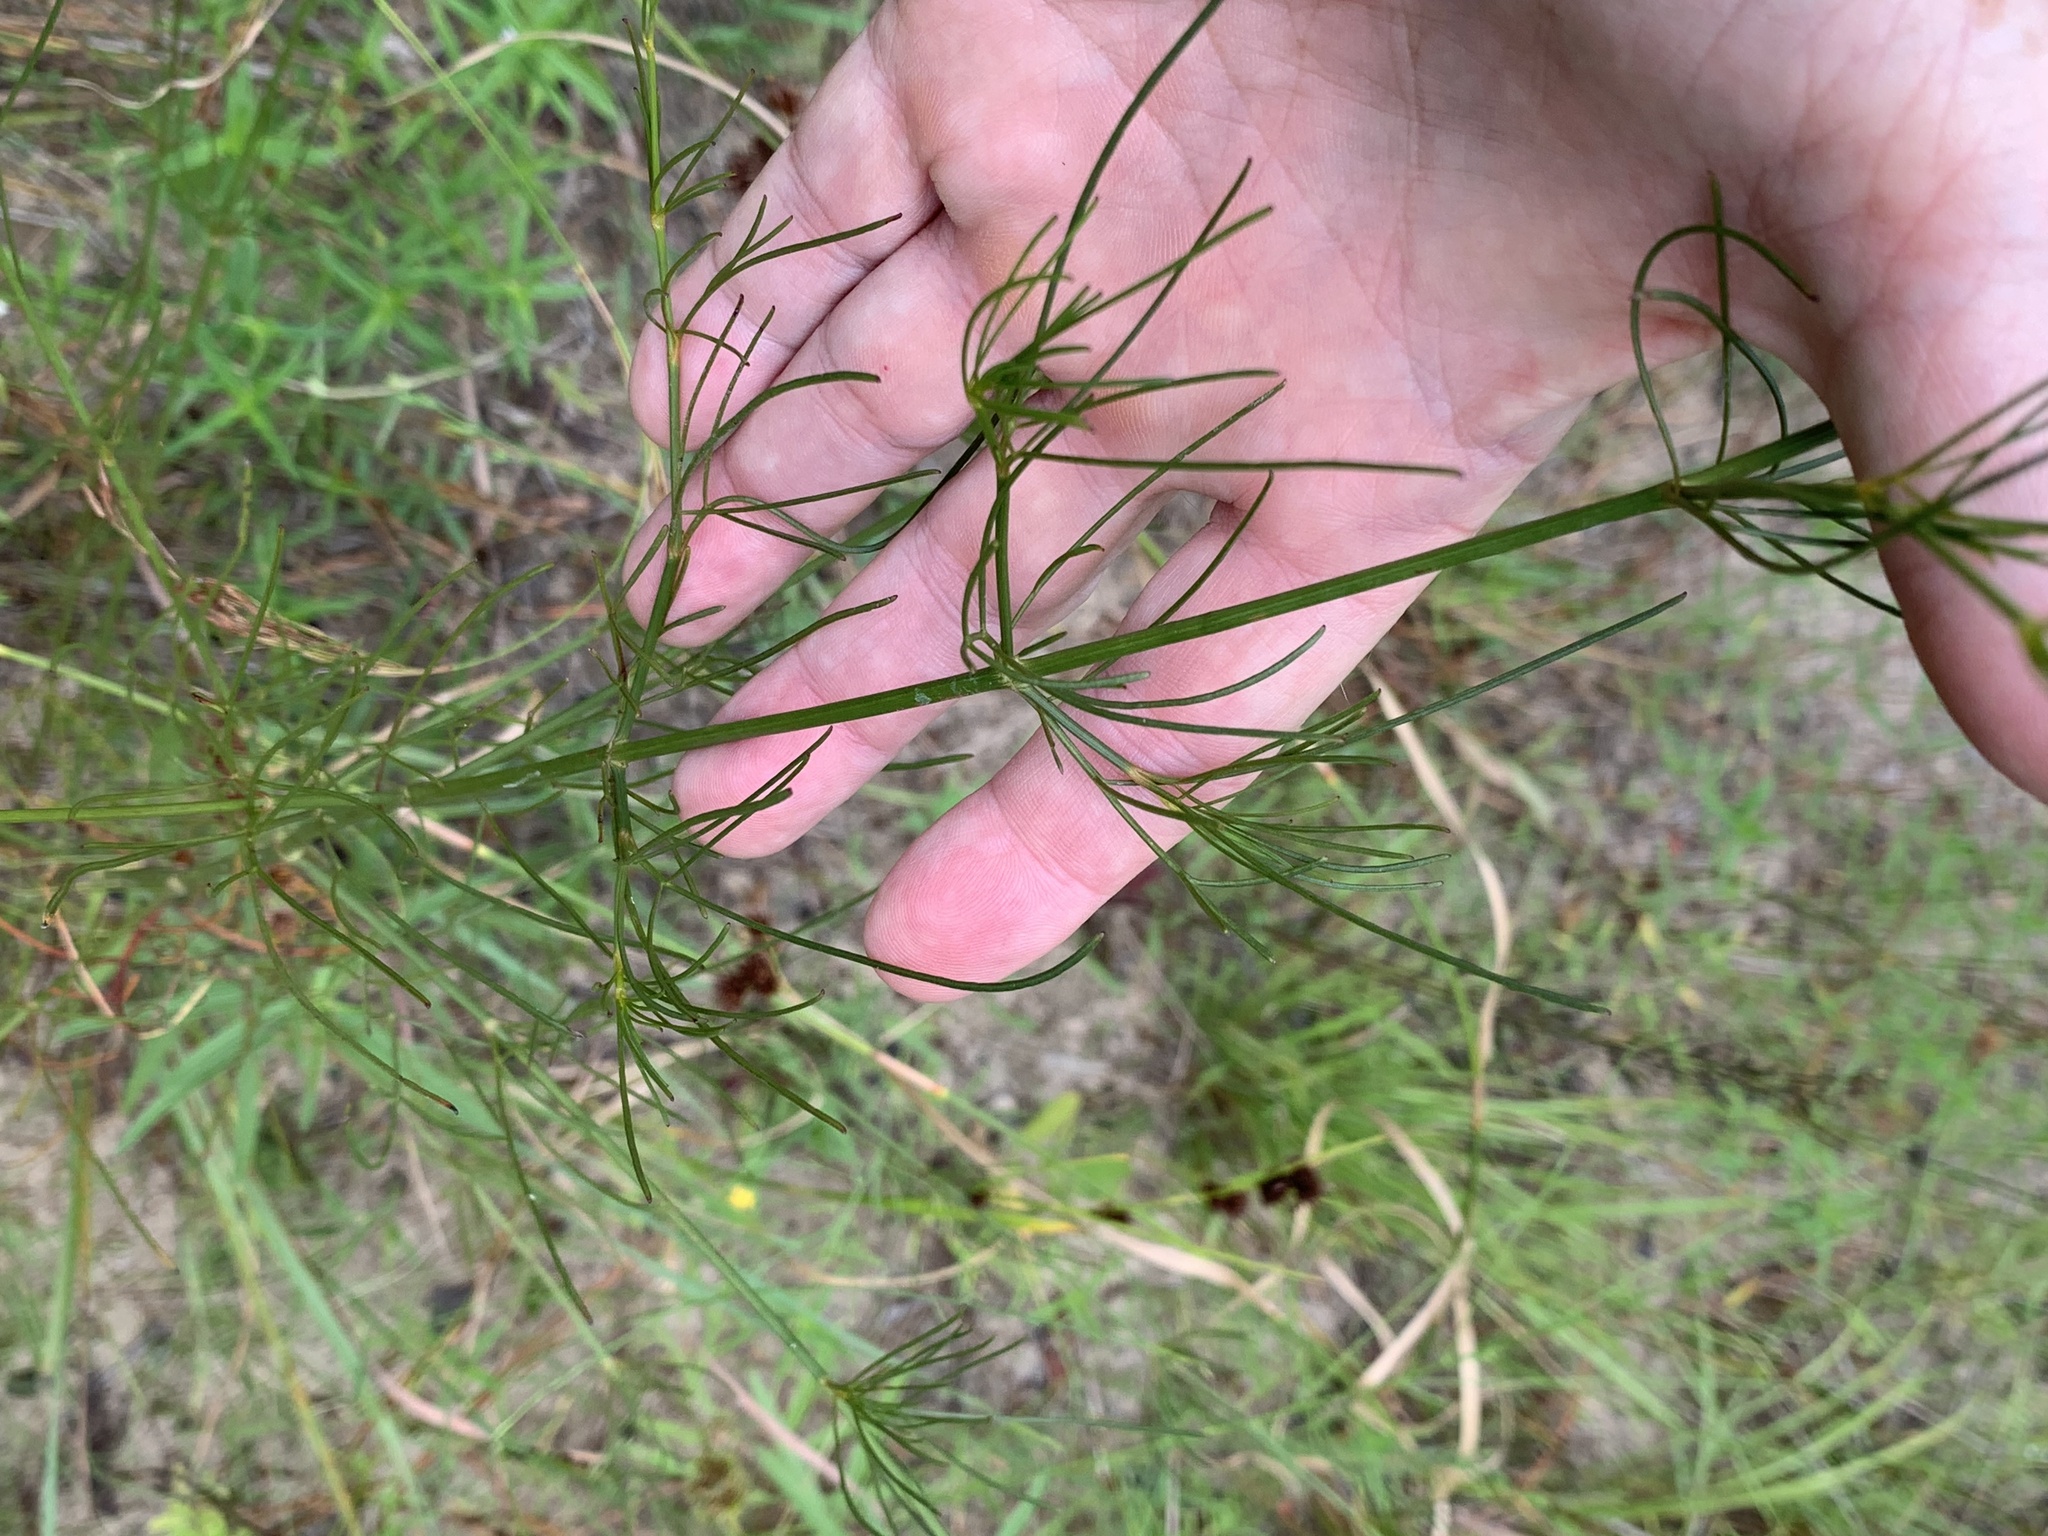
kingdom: Plantae
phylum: Tracheophyta
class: Magnoliopsida
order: Asterales
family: Asteraceae
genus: Coreopsis
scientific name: Coreopsis tinctoria
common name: Garden tickseed
